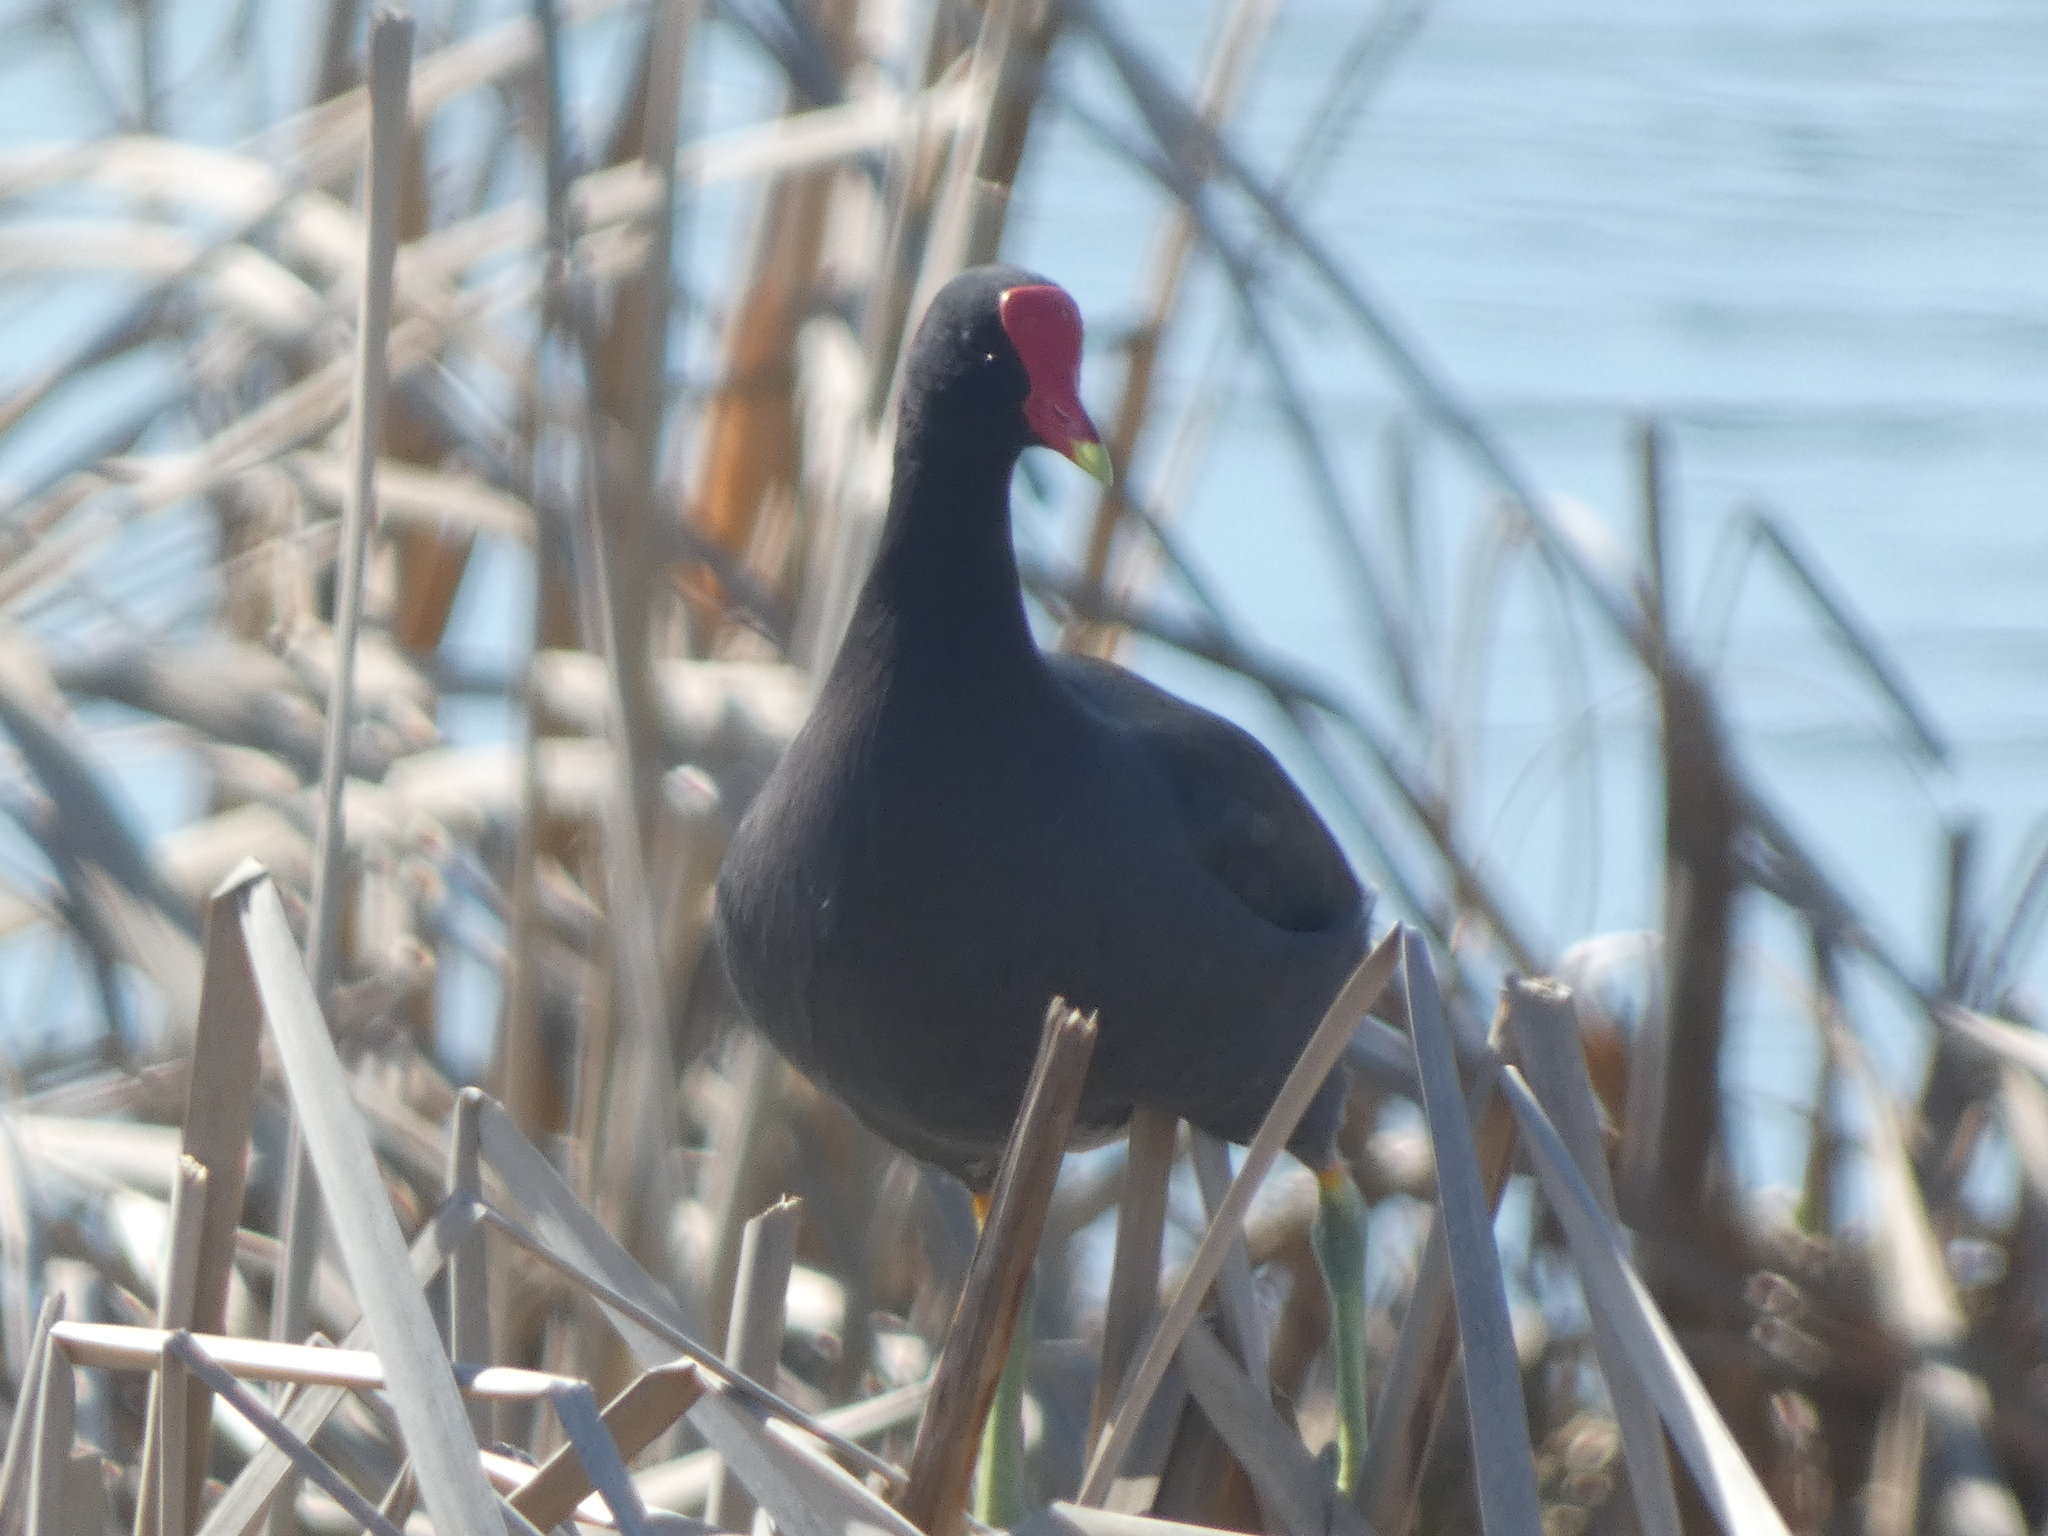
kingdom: Animalia
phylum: Chordata
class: Aves
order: Gruiformes
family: Rallidae
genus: Gallinula
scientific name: Gallinula chloropus
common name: Common moorhen
